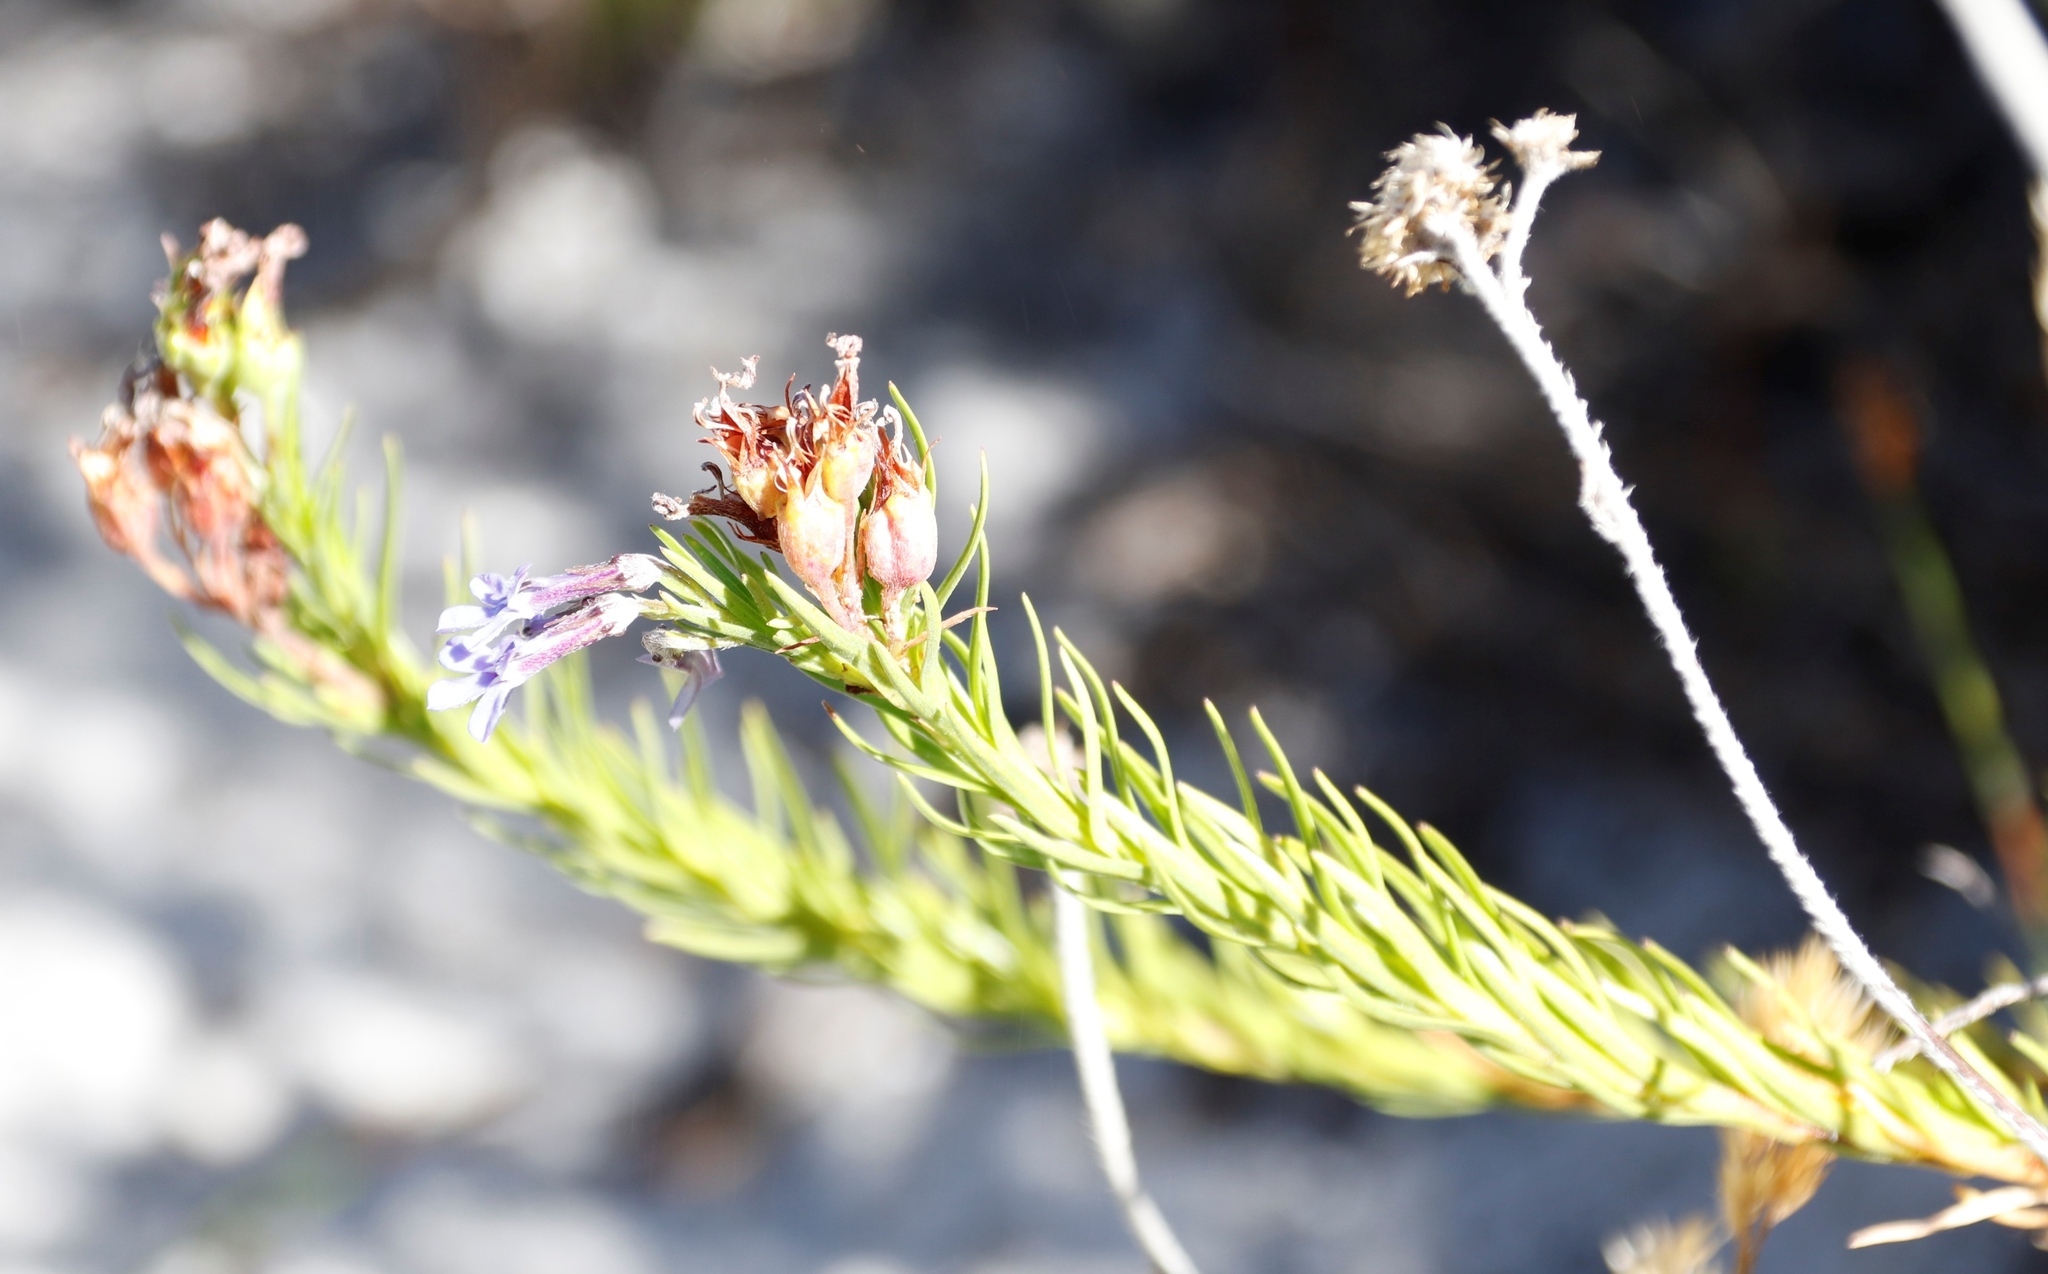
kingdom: Plantae
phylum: Tracheophyta
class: Magnoliopsida
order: Asterales
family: Campanulaceae
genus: Lobelia
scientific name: Lobelia pinifolia
